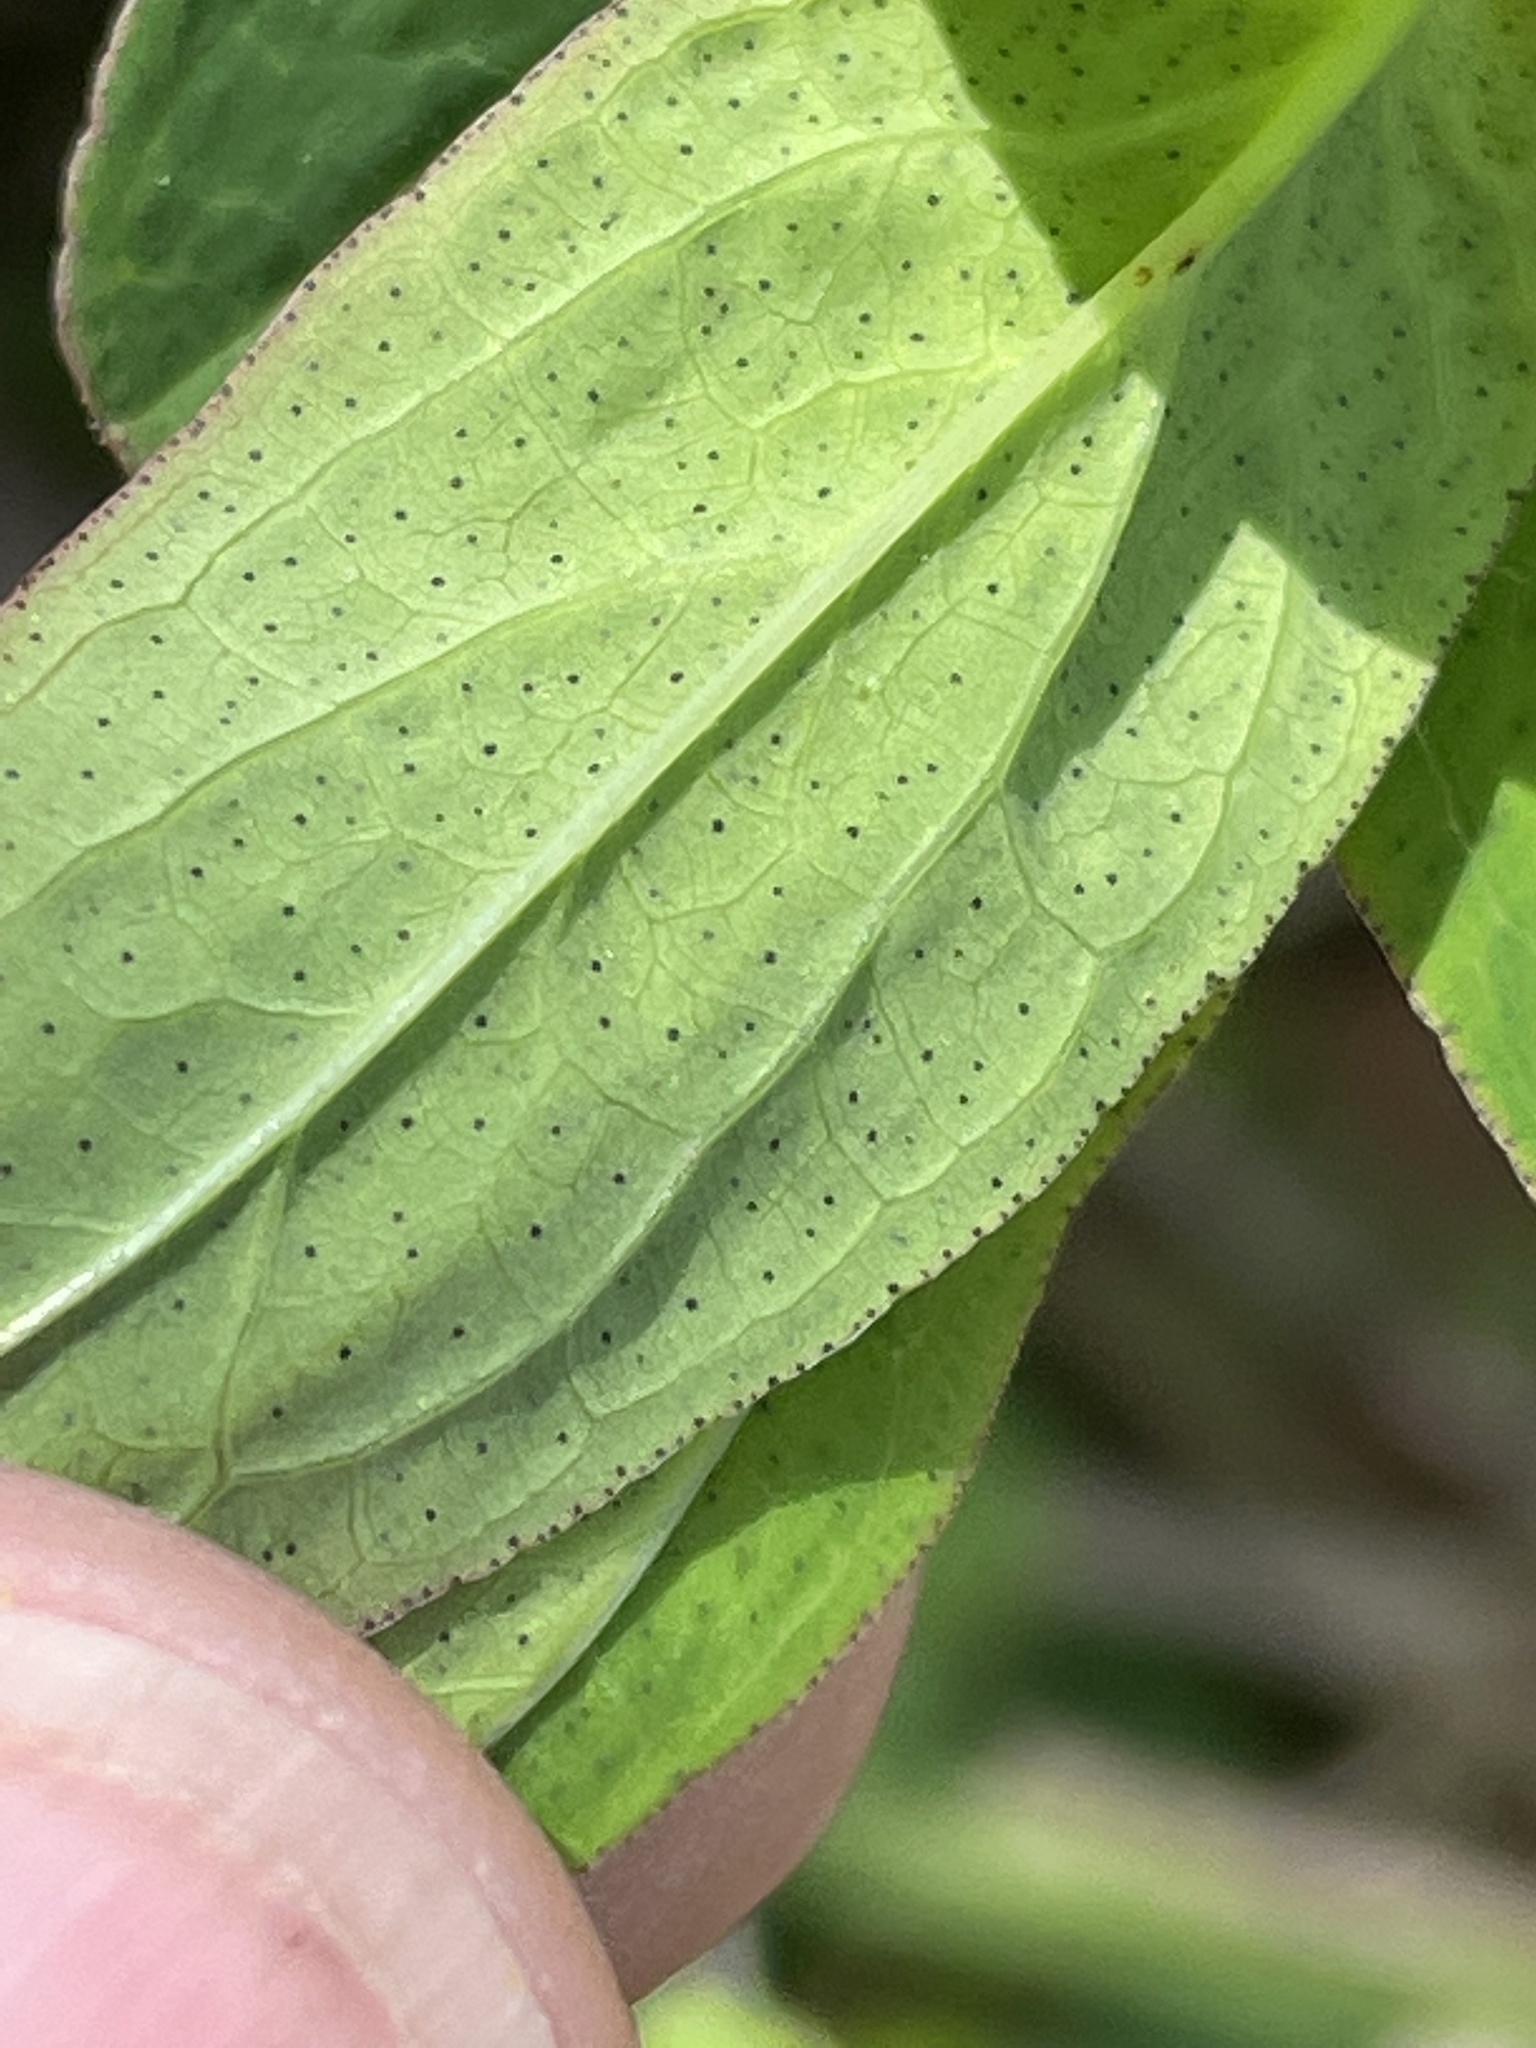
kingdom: Plantae
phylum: Tracheophyta
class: Magnoliopsida
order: Malpighiales
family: Hypericaceae
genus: Hypericum
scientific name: Hypericum punctatum
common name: Spotted st. john's-wort
